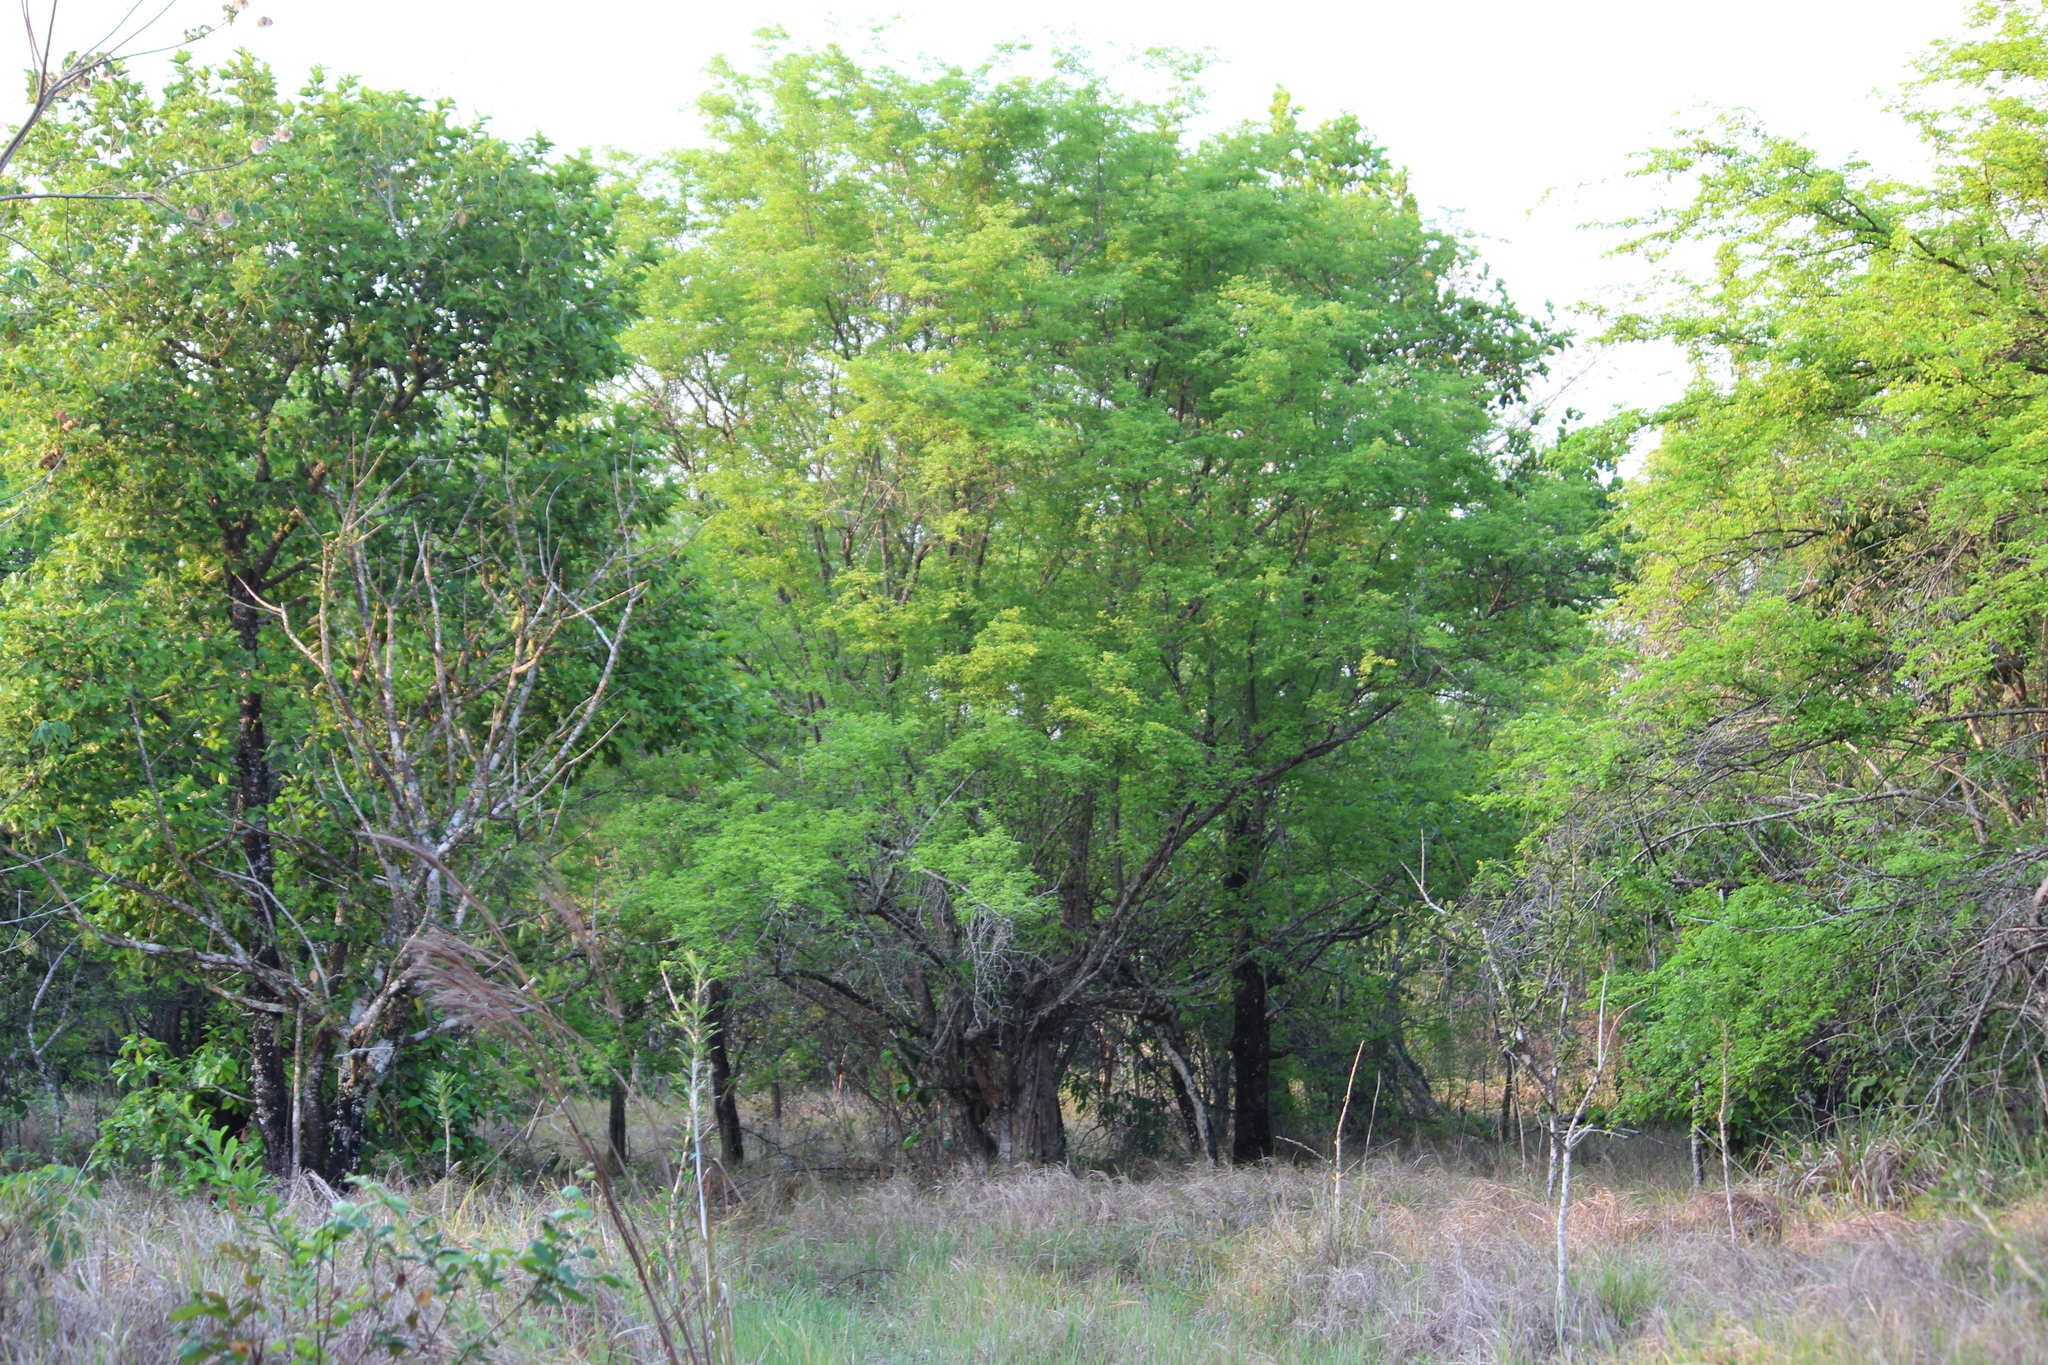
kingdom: Plantae
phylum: Tracheophyta
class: Magnoliopsida
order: Fabales
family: Fabaceae
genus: Haematoxylum
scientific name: Haematoxylum campechianum
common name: Logwood
